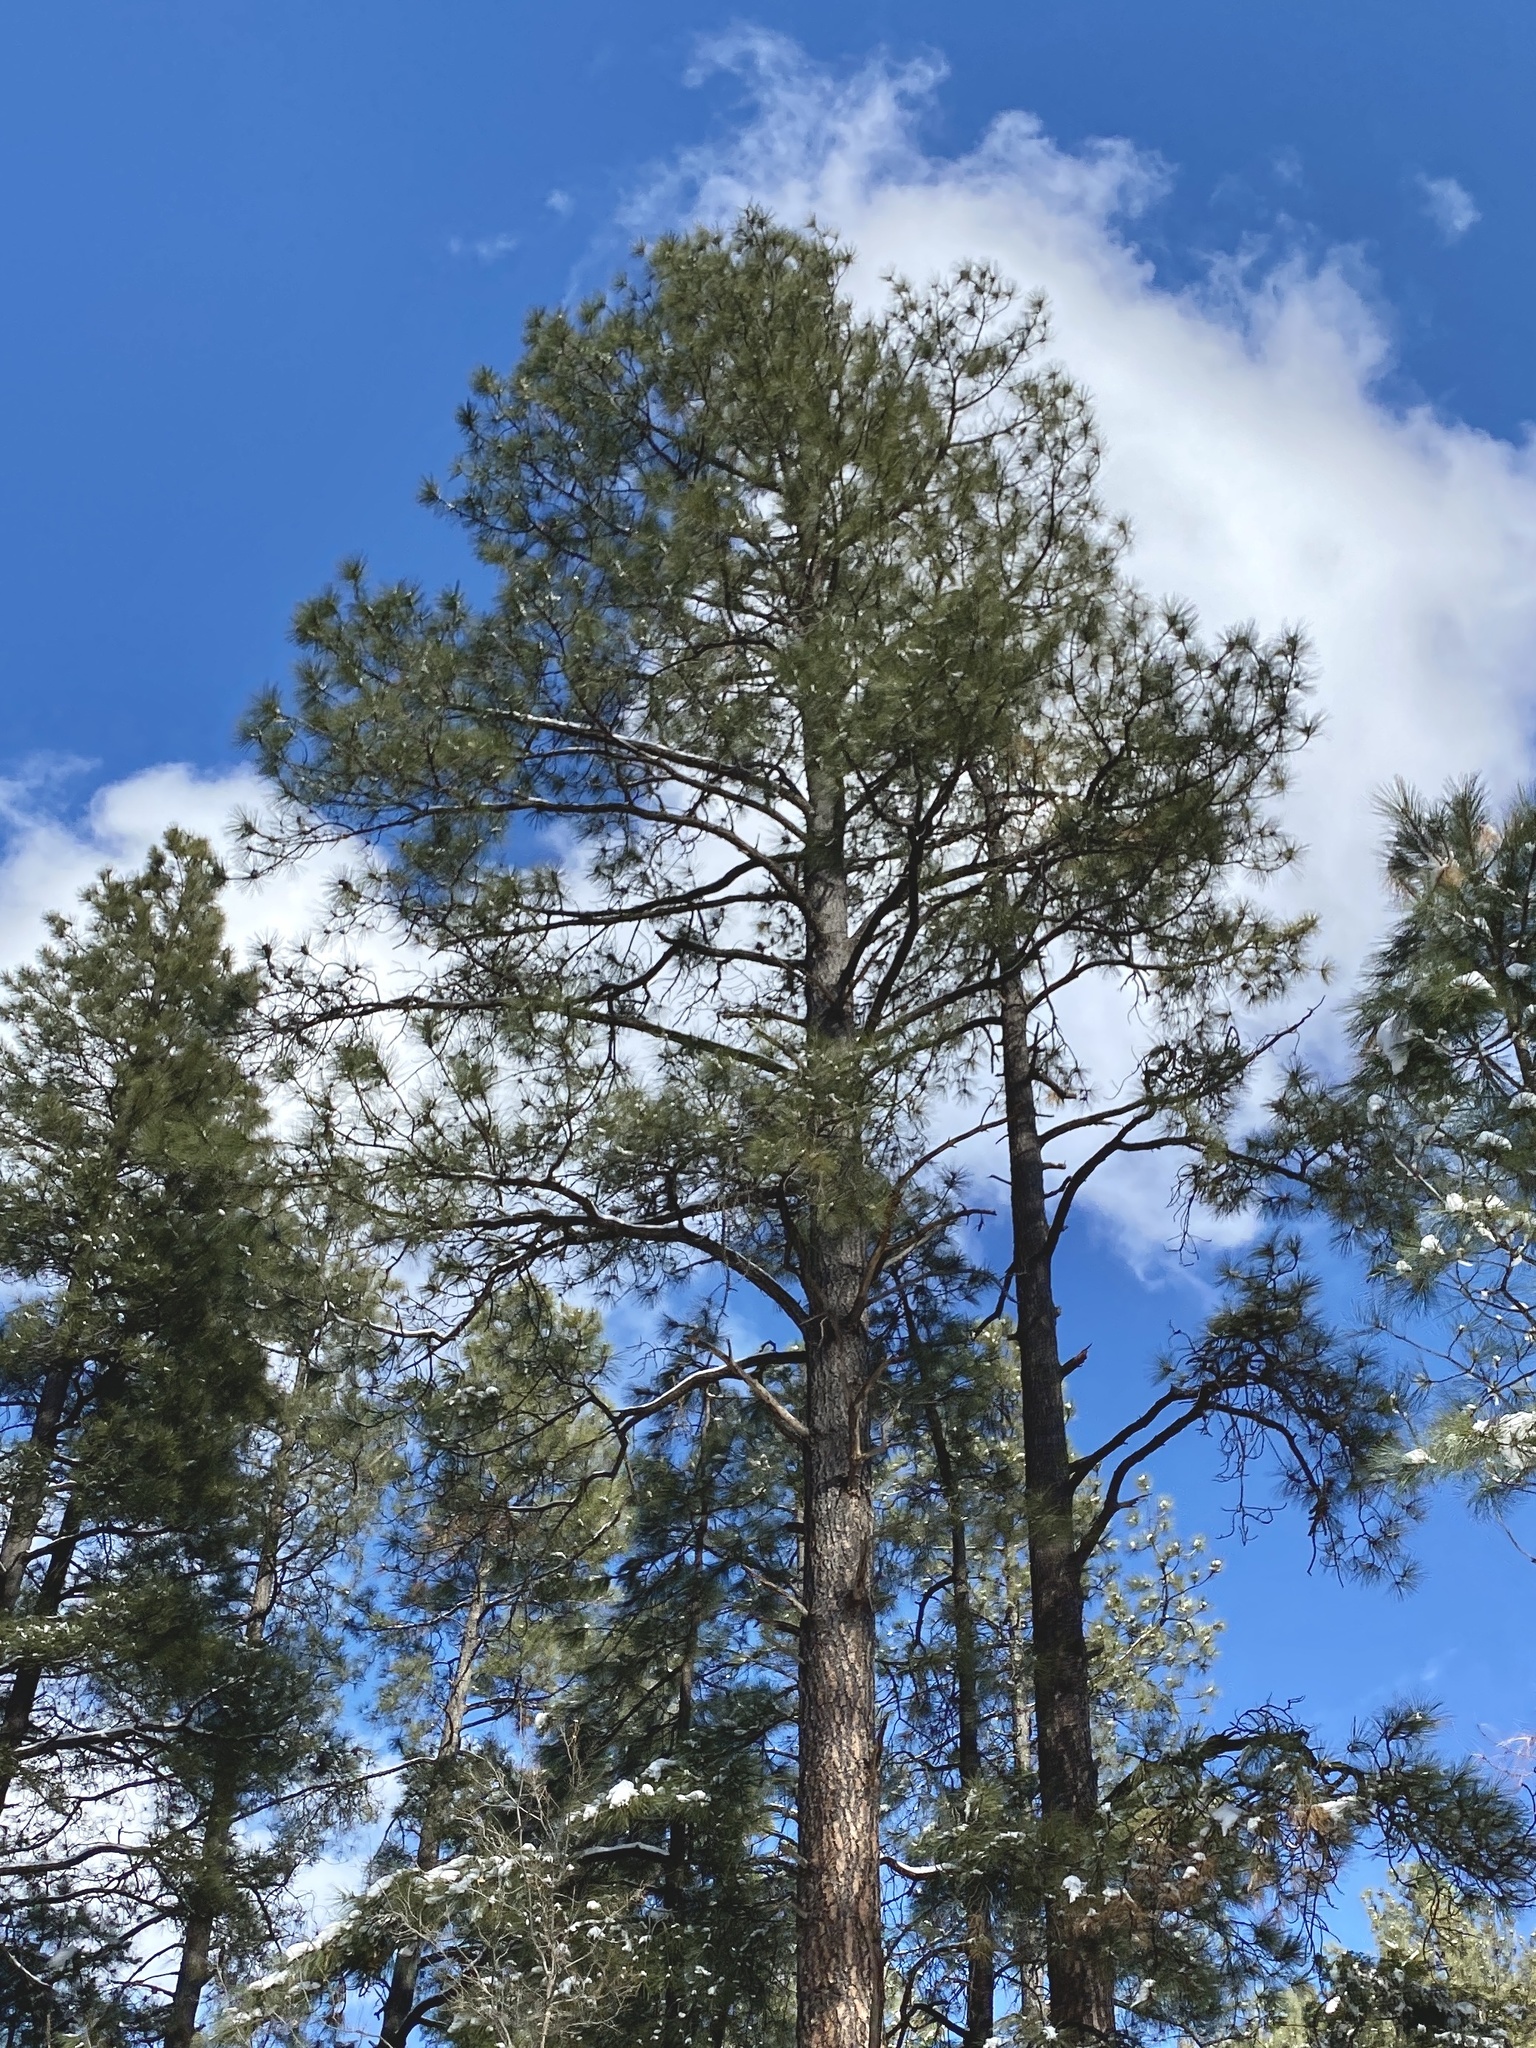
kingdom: Plantae
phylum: Tracheophyta
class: Pinopsida
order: Pinales
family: Pinaceae
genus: Pinus
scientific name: Pinus ponderosa
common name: Western yellow-pine
